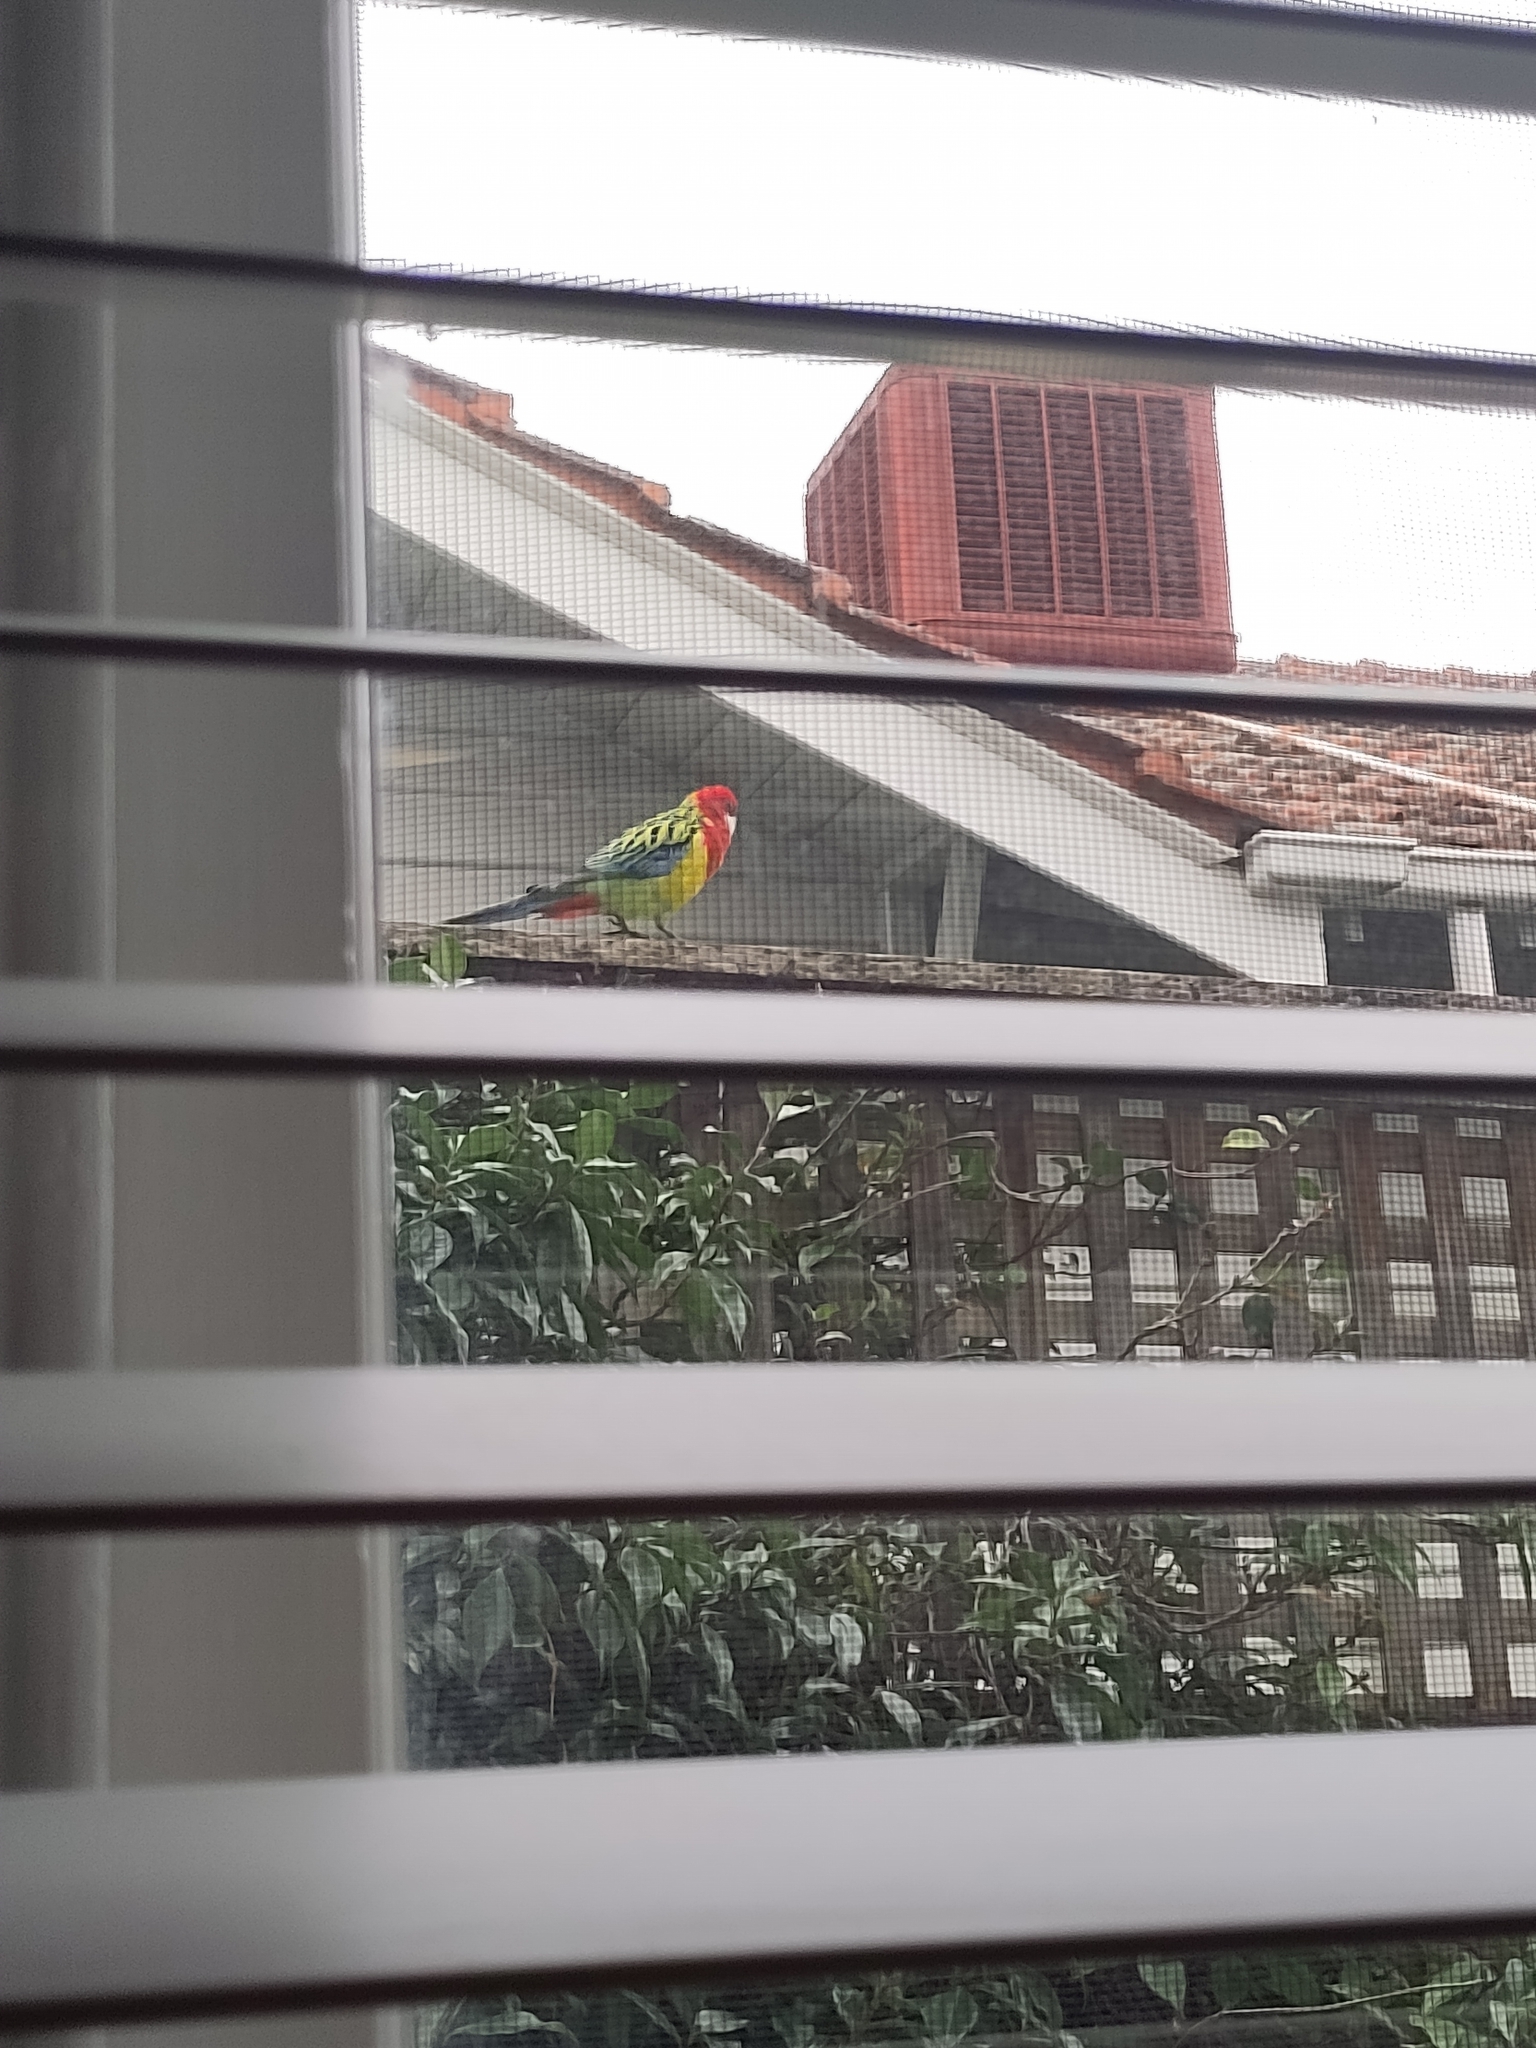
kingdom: Animalia
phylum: Chordata
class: Aves
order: Psittaciformes
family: Psittacidae
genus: Platycercus
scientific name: Platycercus eximius
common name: Eastern rosella
